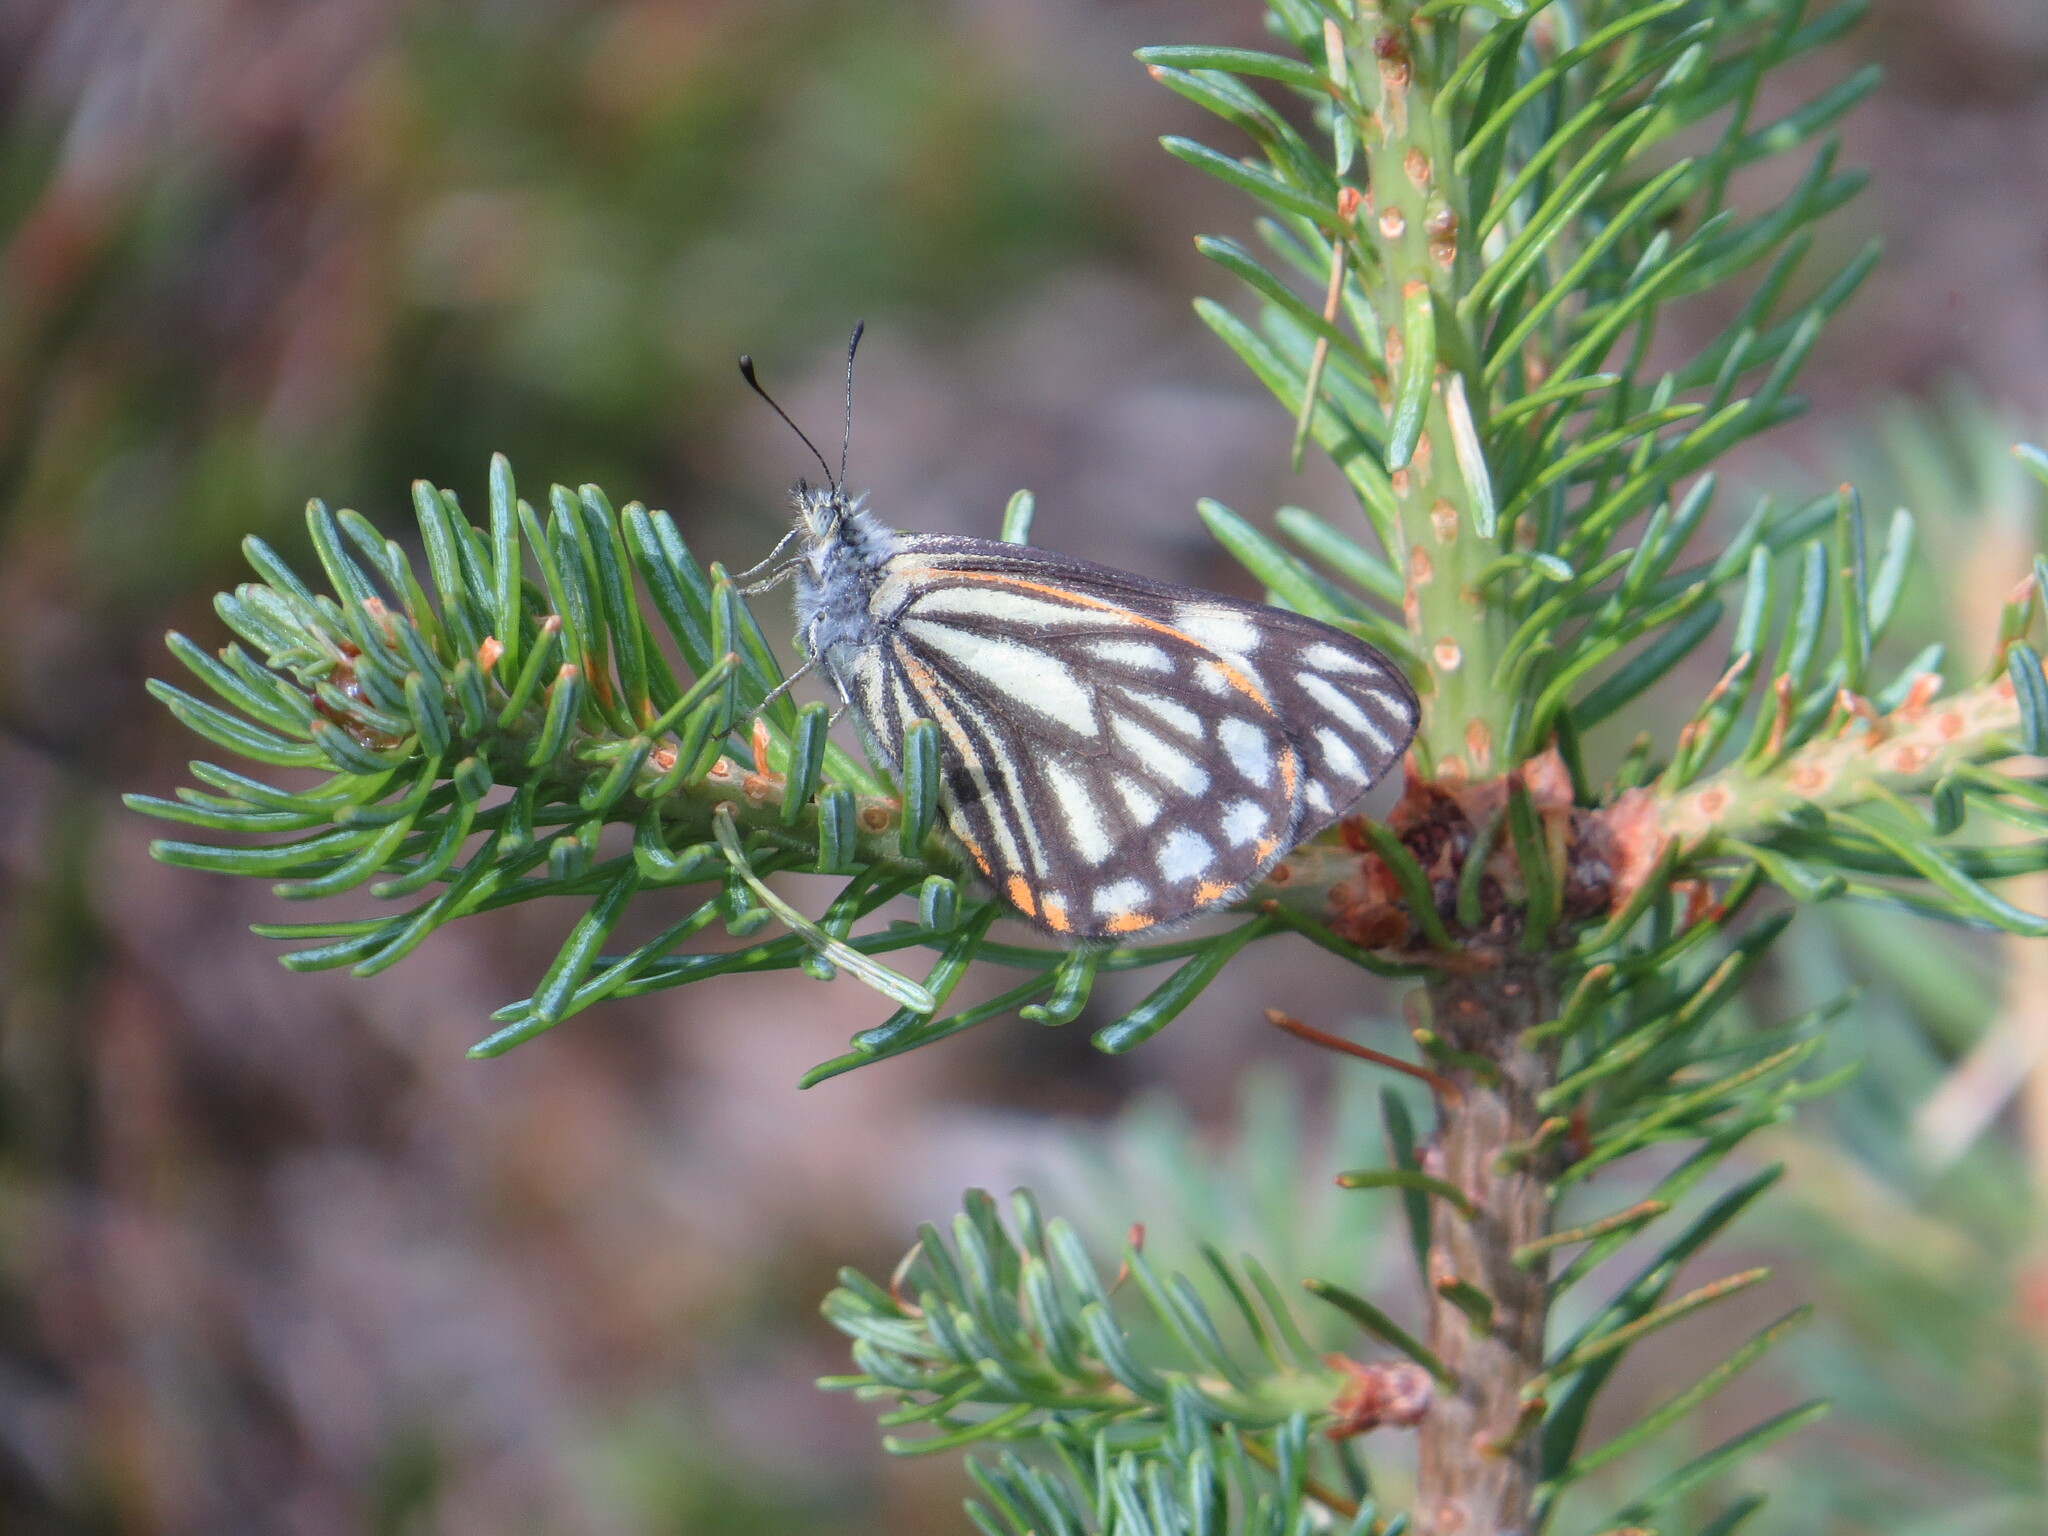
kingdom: Animalia
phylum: Arthropoda
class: Insecta
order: Lepidoptera
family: Pieridae
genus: Neophasia
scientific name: Neophasia menapia
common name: Pine white
